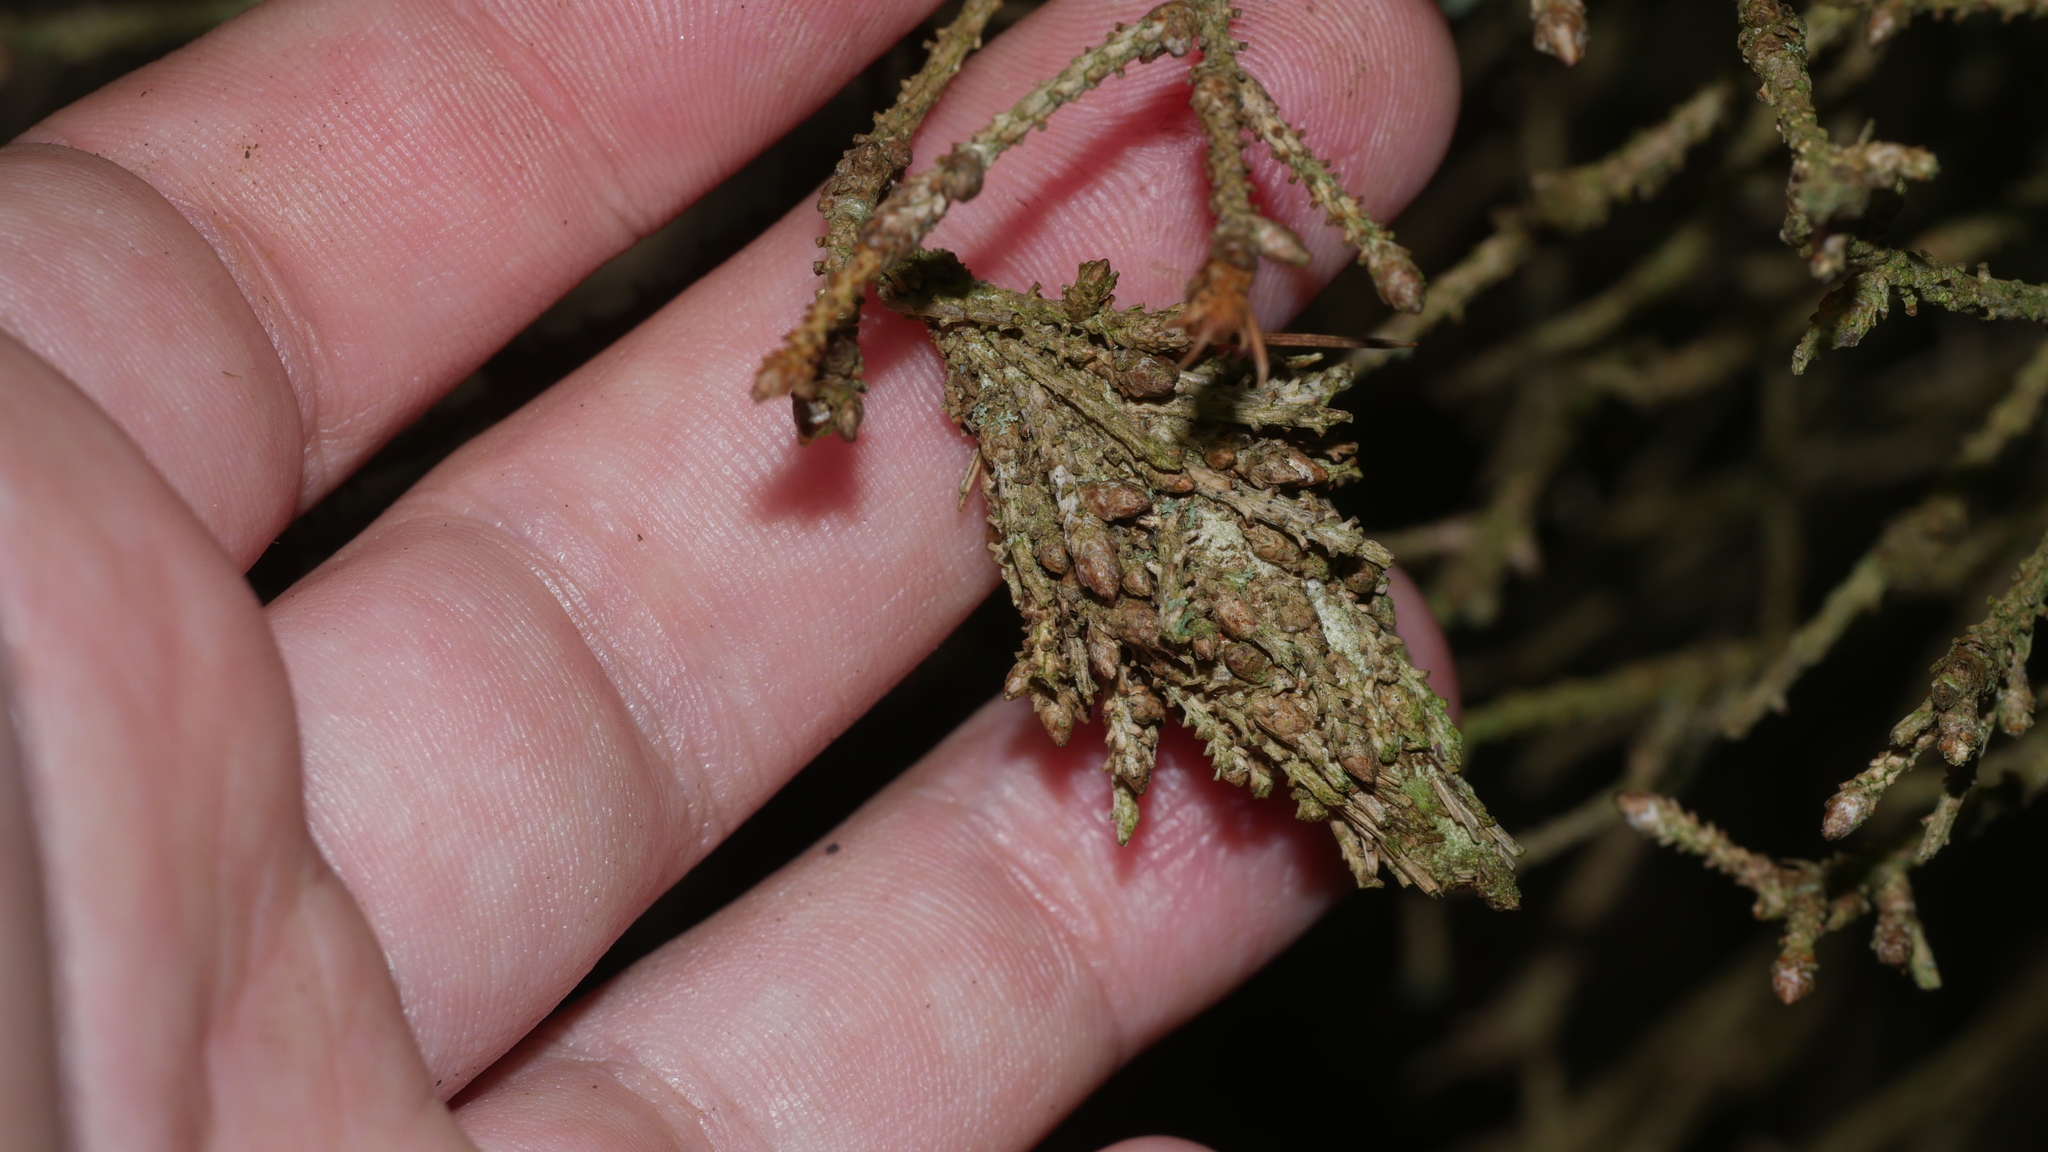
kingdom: Animalia
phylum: Arthropoda
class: Insecta
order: Lepidoptera
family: Psychidae
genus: Thyridopteryx
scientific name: Thyridopteryx ephemeraeformis
